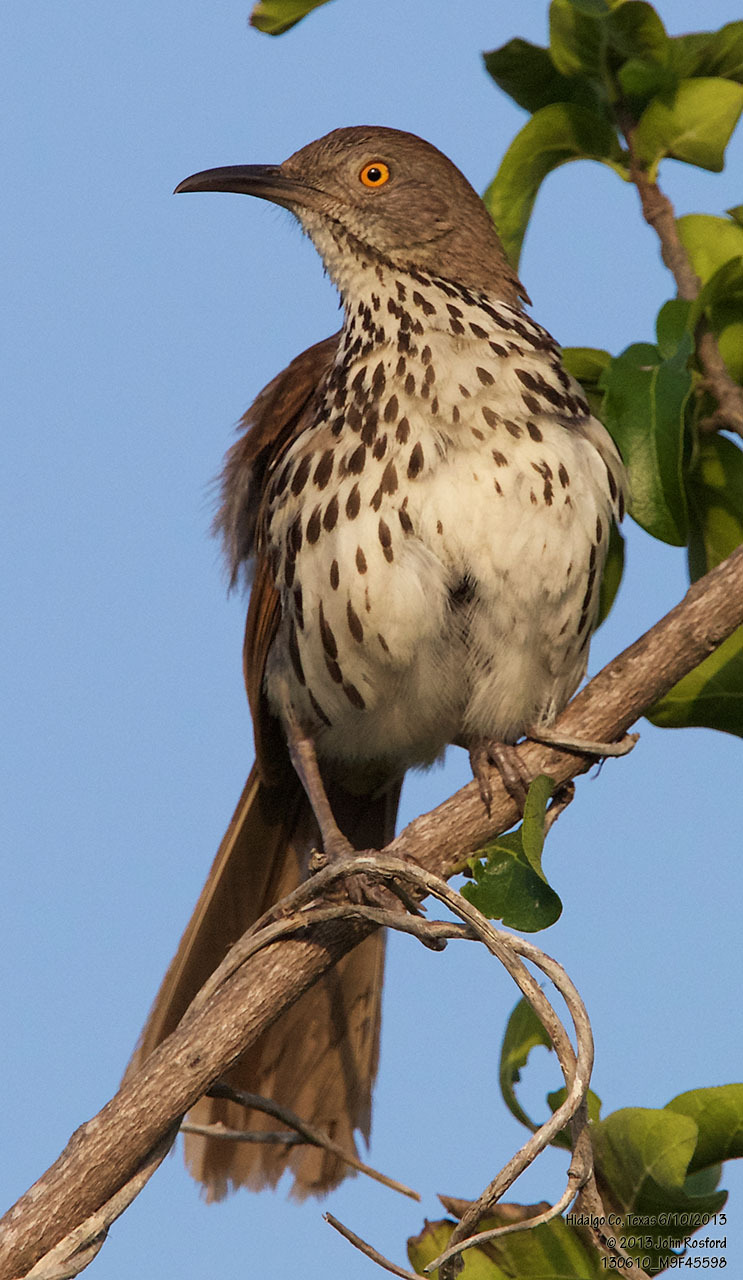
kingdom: Animalia
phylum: Chordata
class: Aves
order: Passeriformes
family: Mimidae
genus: Toxostoma
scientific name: Toxostoma longirostre
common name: Long-billed thrasher
